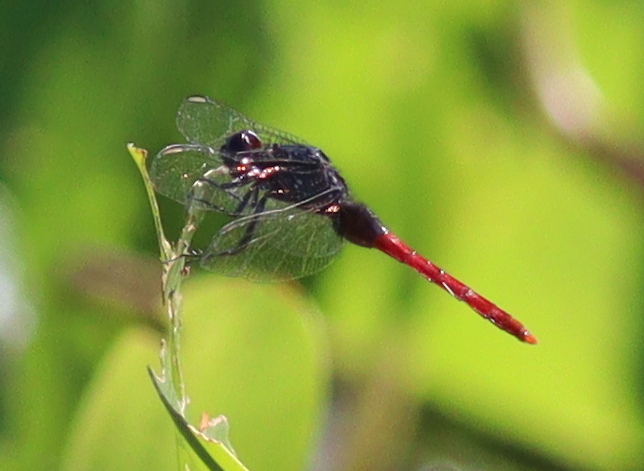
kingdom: Animalia
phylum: Arthropoda
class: Insecta
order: Odonata
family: Libellulidae
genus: Erythemis
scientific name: Erythemis peruviana
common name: Flame-tailed pondhawk
